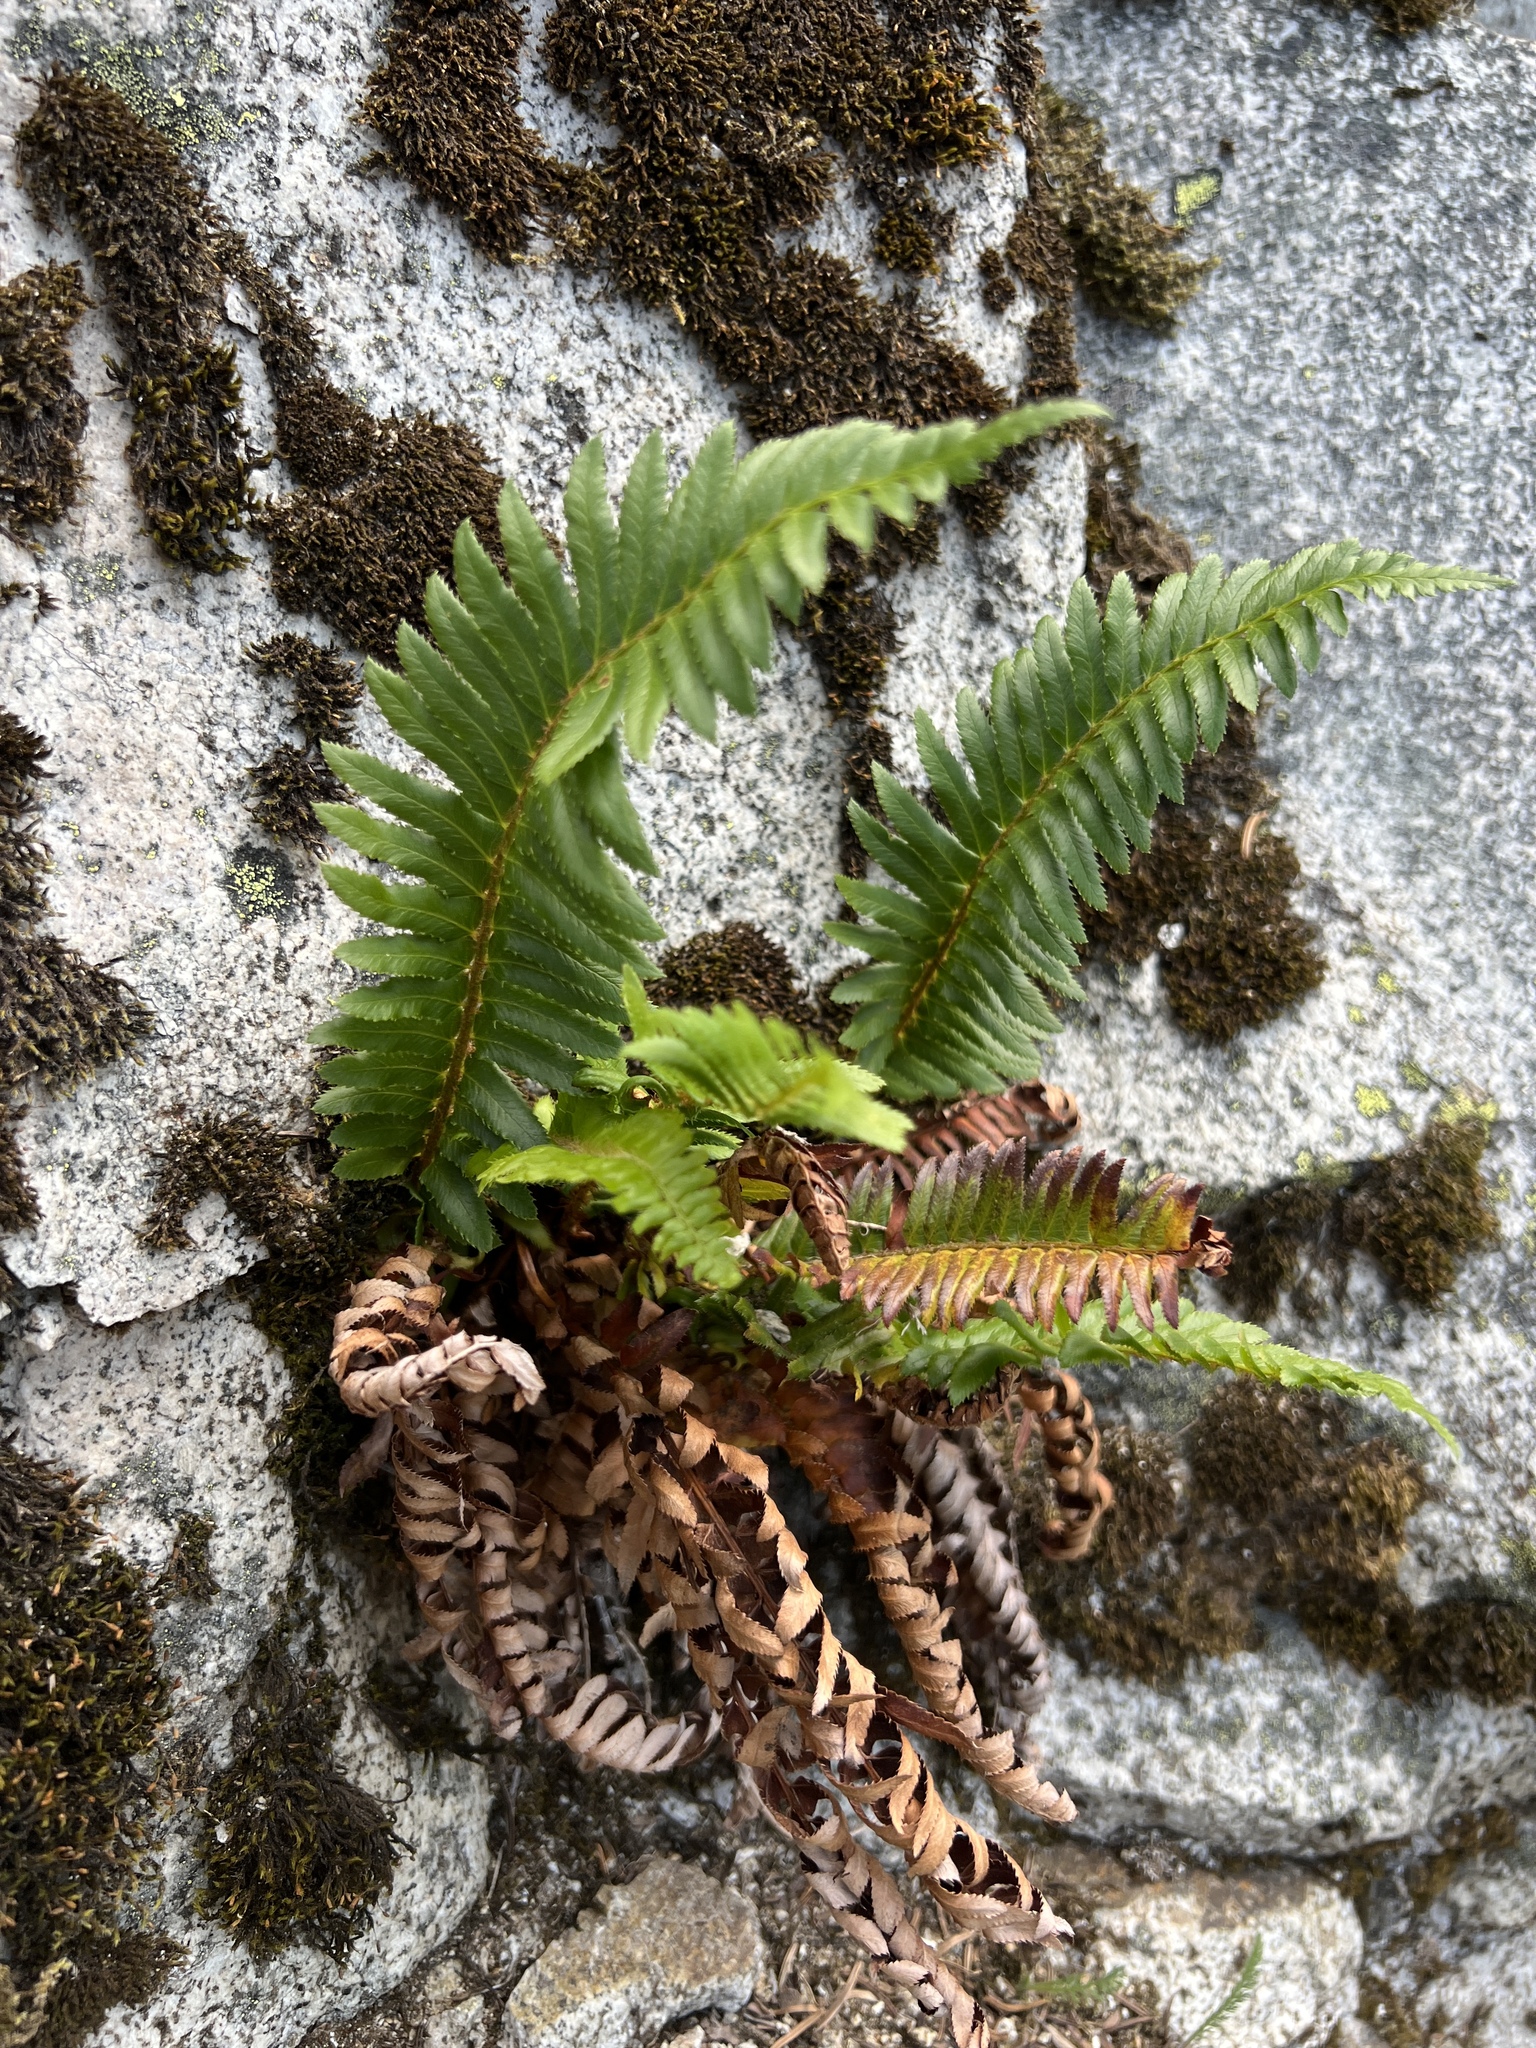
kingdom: Plantae
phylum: Tracheophyta
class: Polypodiopsida
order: Polypodiales
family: Dryopteridaceae
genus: Polystichum
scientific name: Polystichum munitum
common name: Western sword-fern
